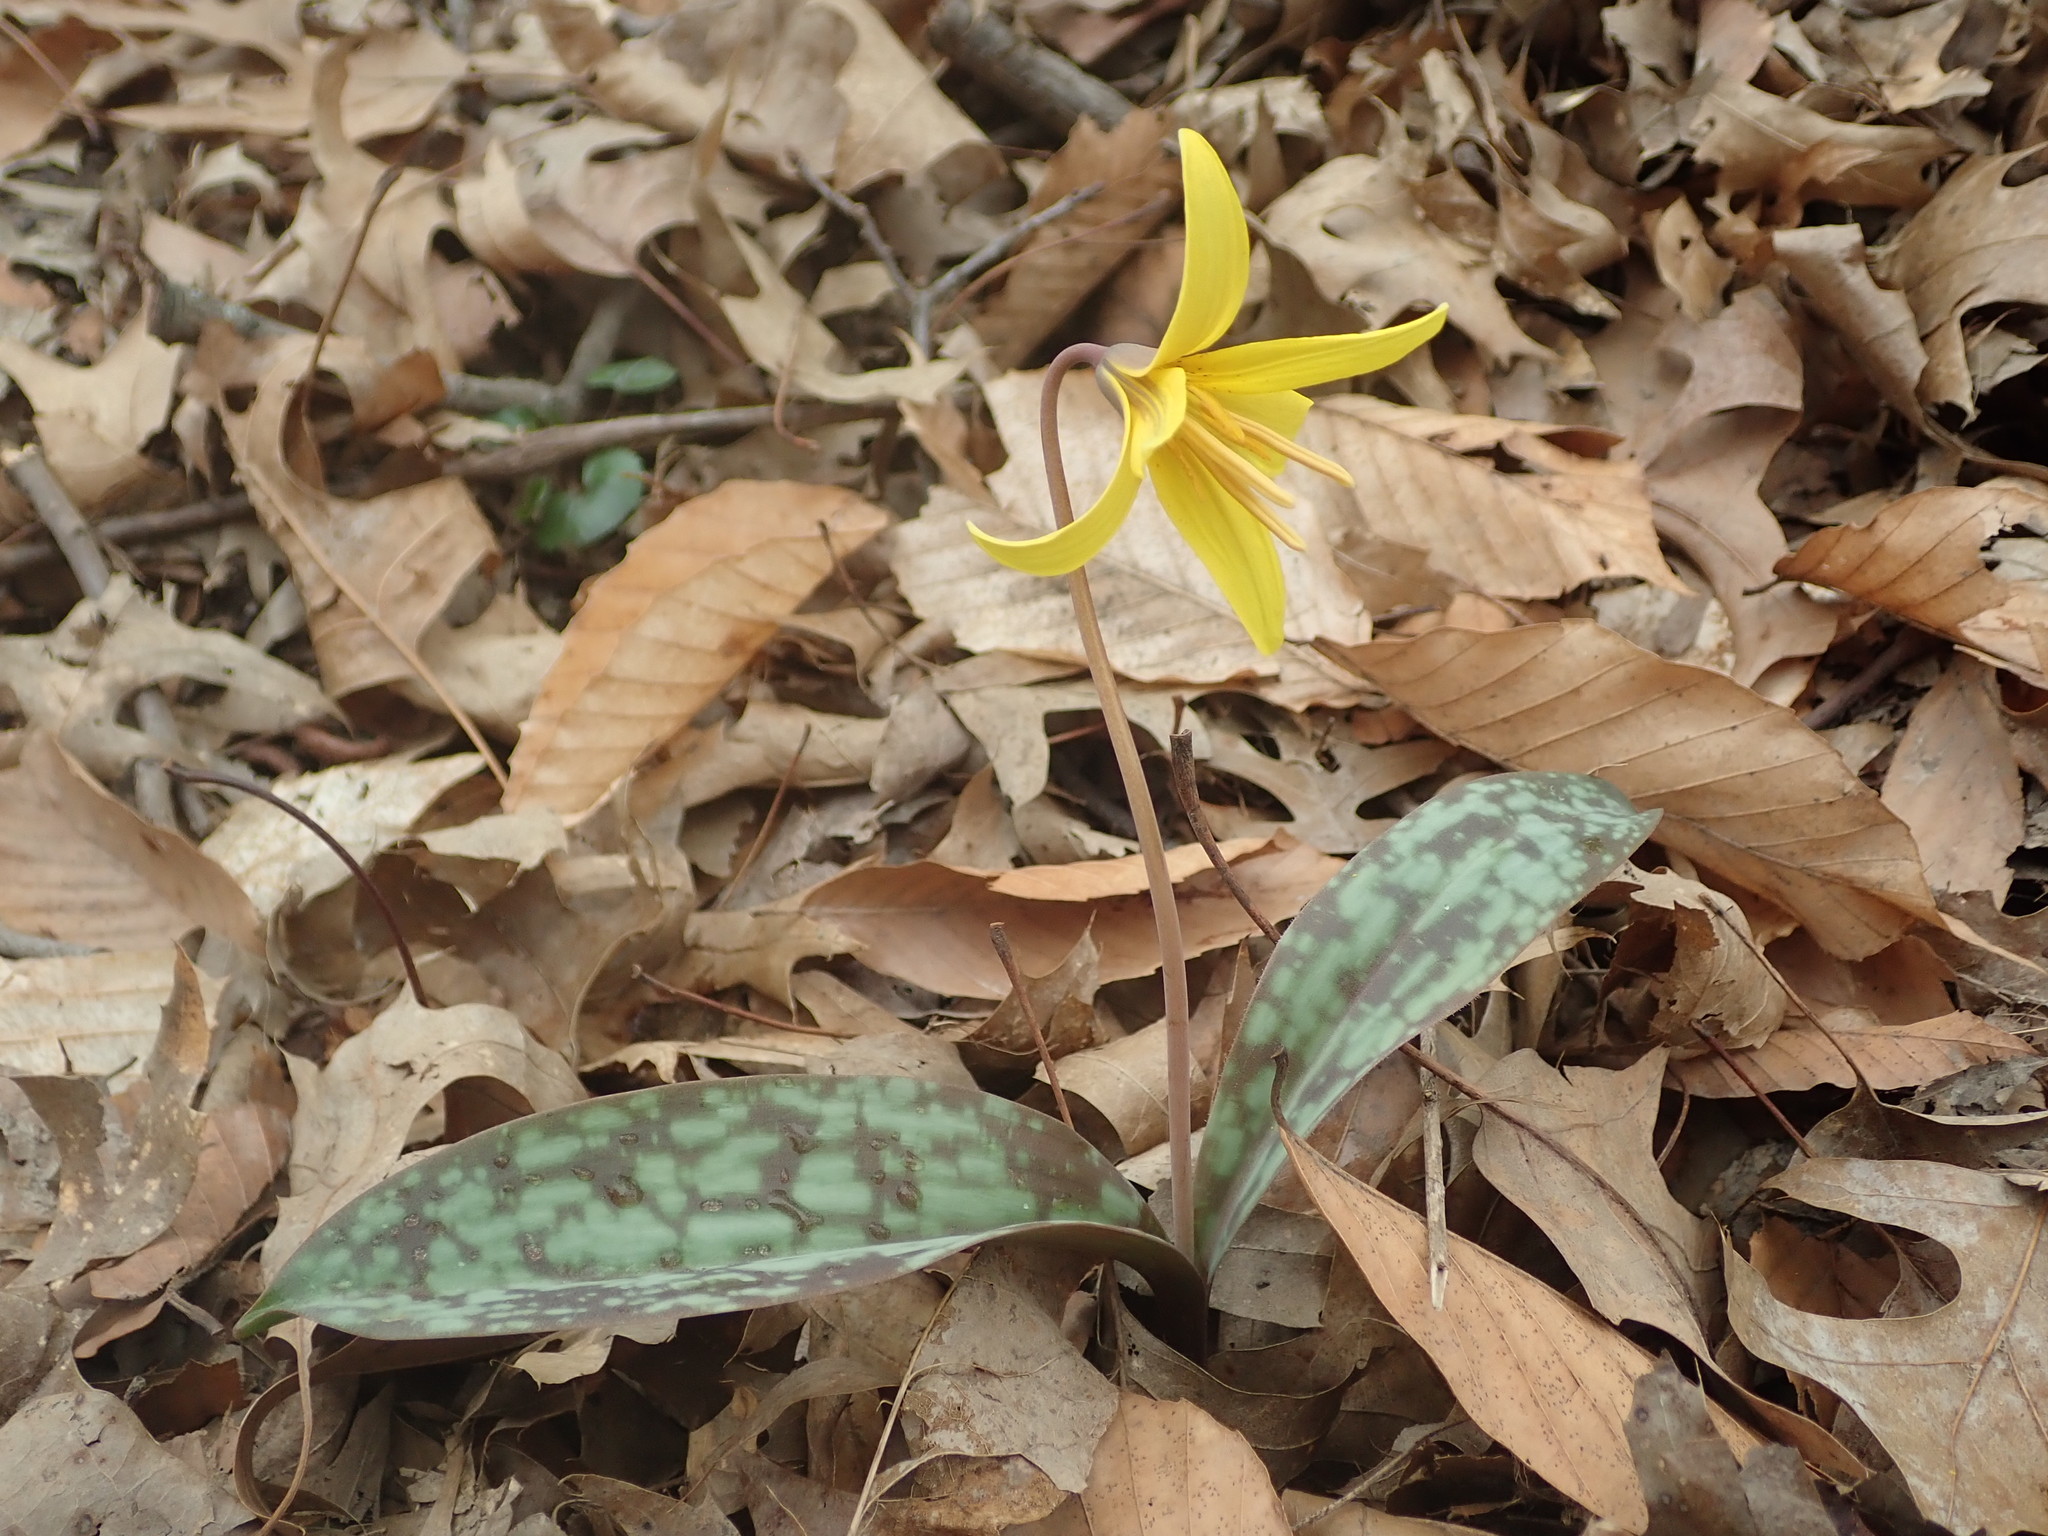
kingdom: Plantae
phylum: Tracheophyta
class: Liliopsida
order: Liliales
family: Liliaceae
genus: Erythronium
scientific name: Erythronium americanum
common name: Yellow adder's-tongue
